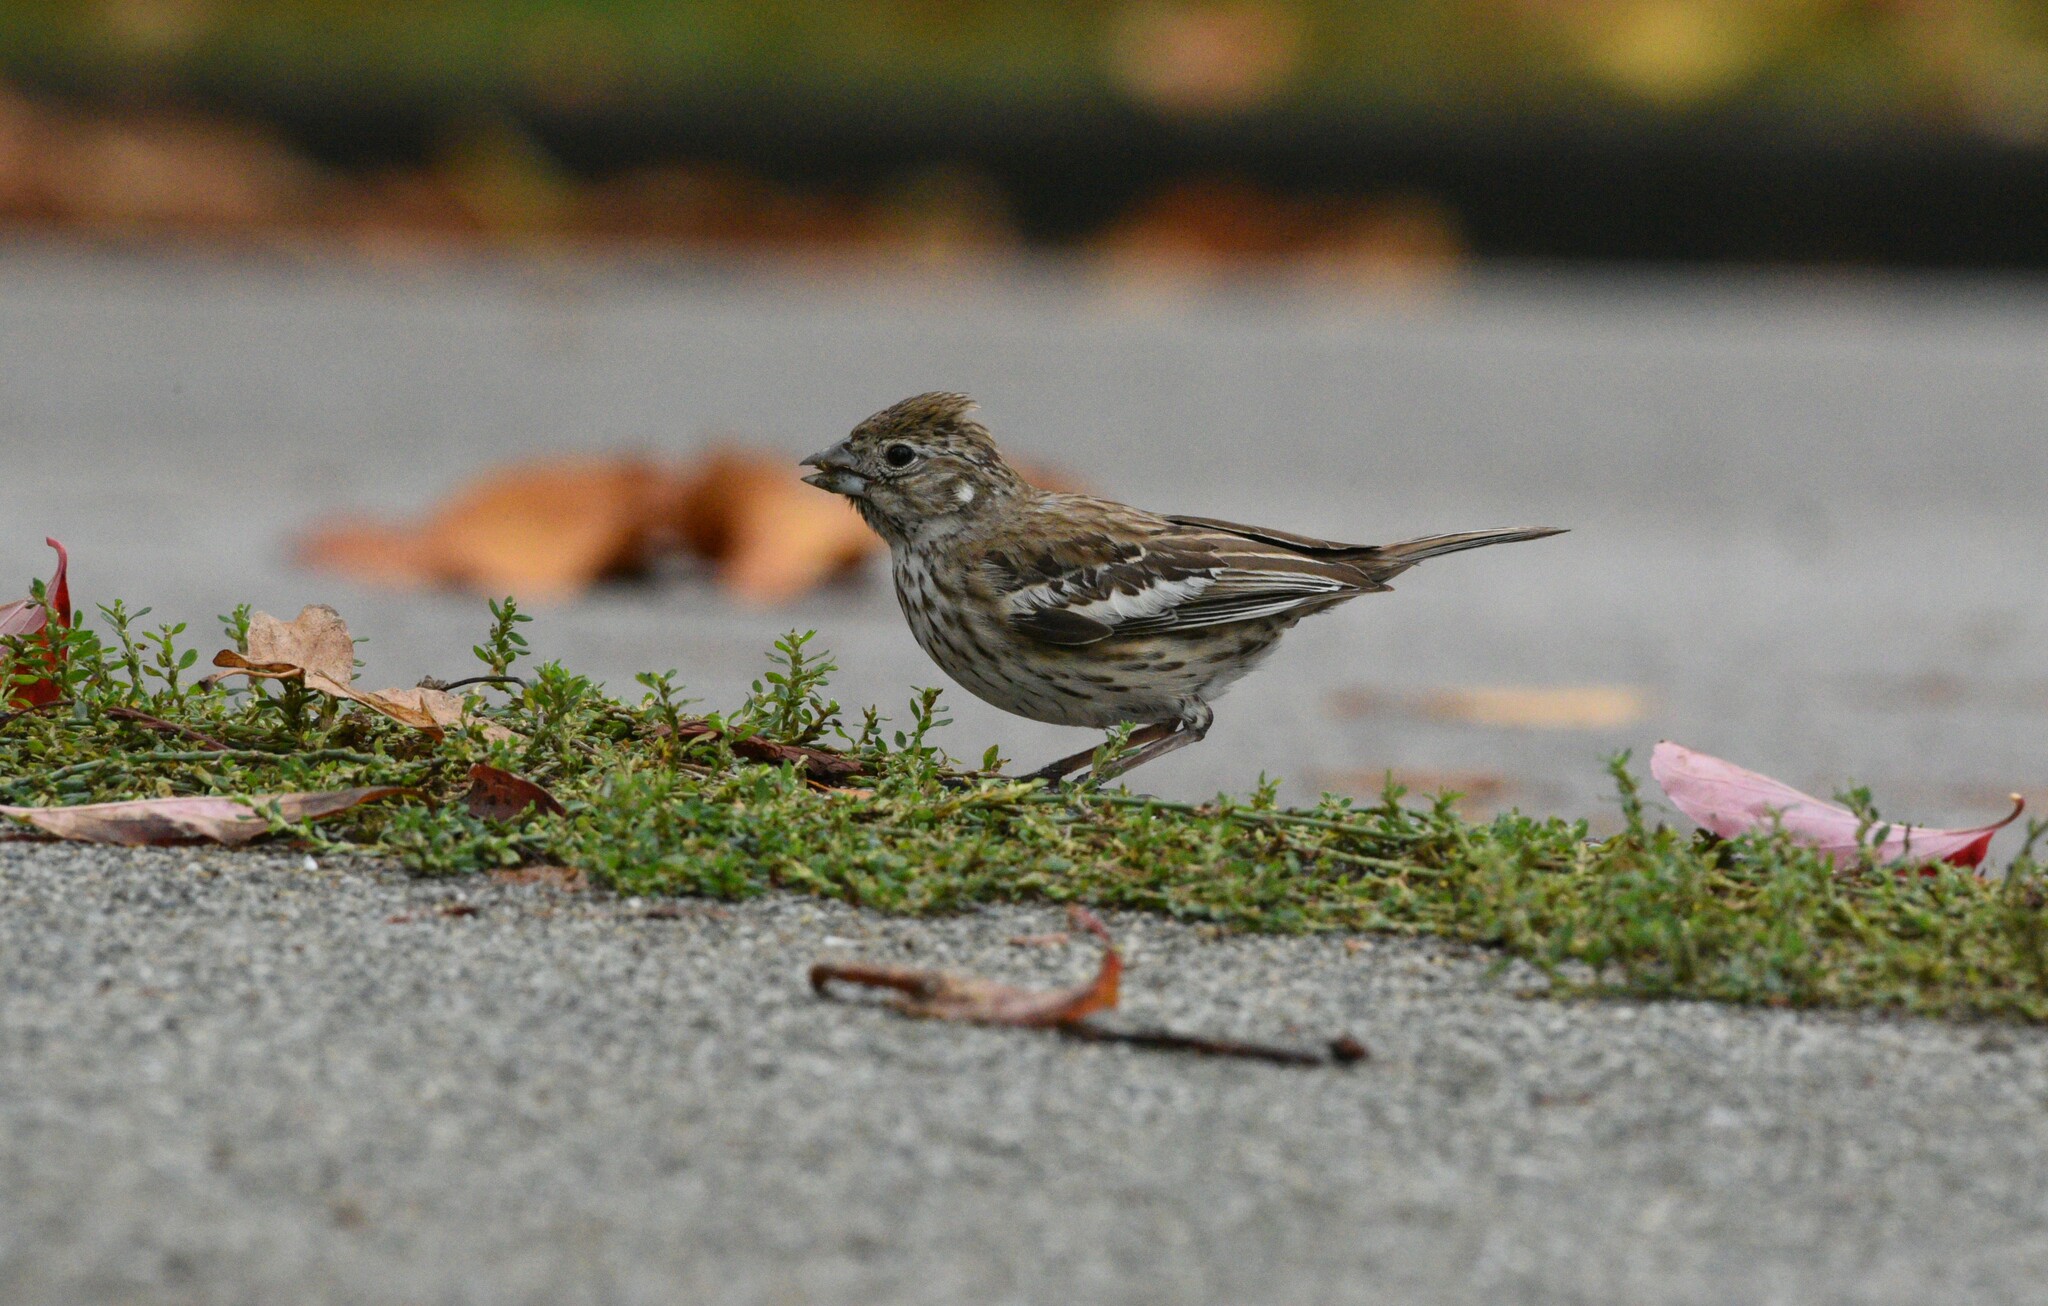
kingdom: Animalia
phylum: Chordata
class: Aves
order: Passeriformes
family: Passerellidae
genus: Calamospiza
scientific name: Calamospiza melanocorys
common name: Lark bunting
